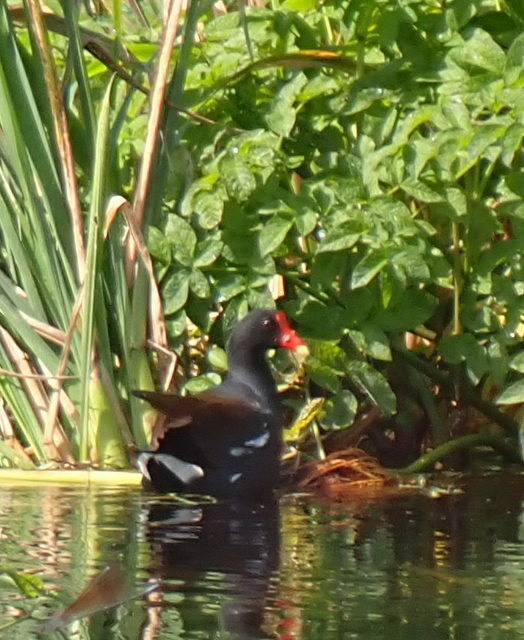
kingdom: Animalia
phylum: Chordata
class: Aves
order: Gruiformes
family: Rallidae
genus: Gallinula
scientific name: Gallinula chloropus
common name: Common moorhen
